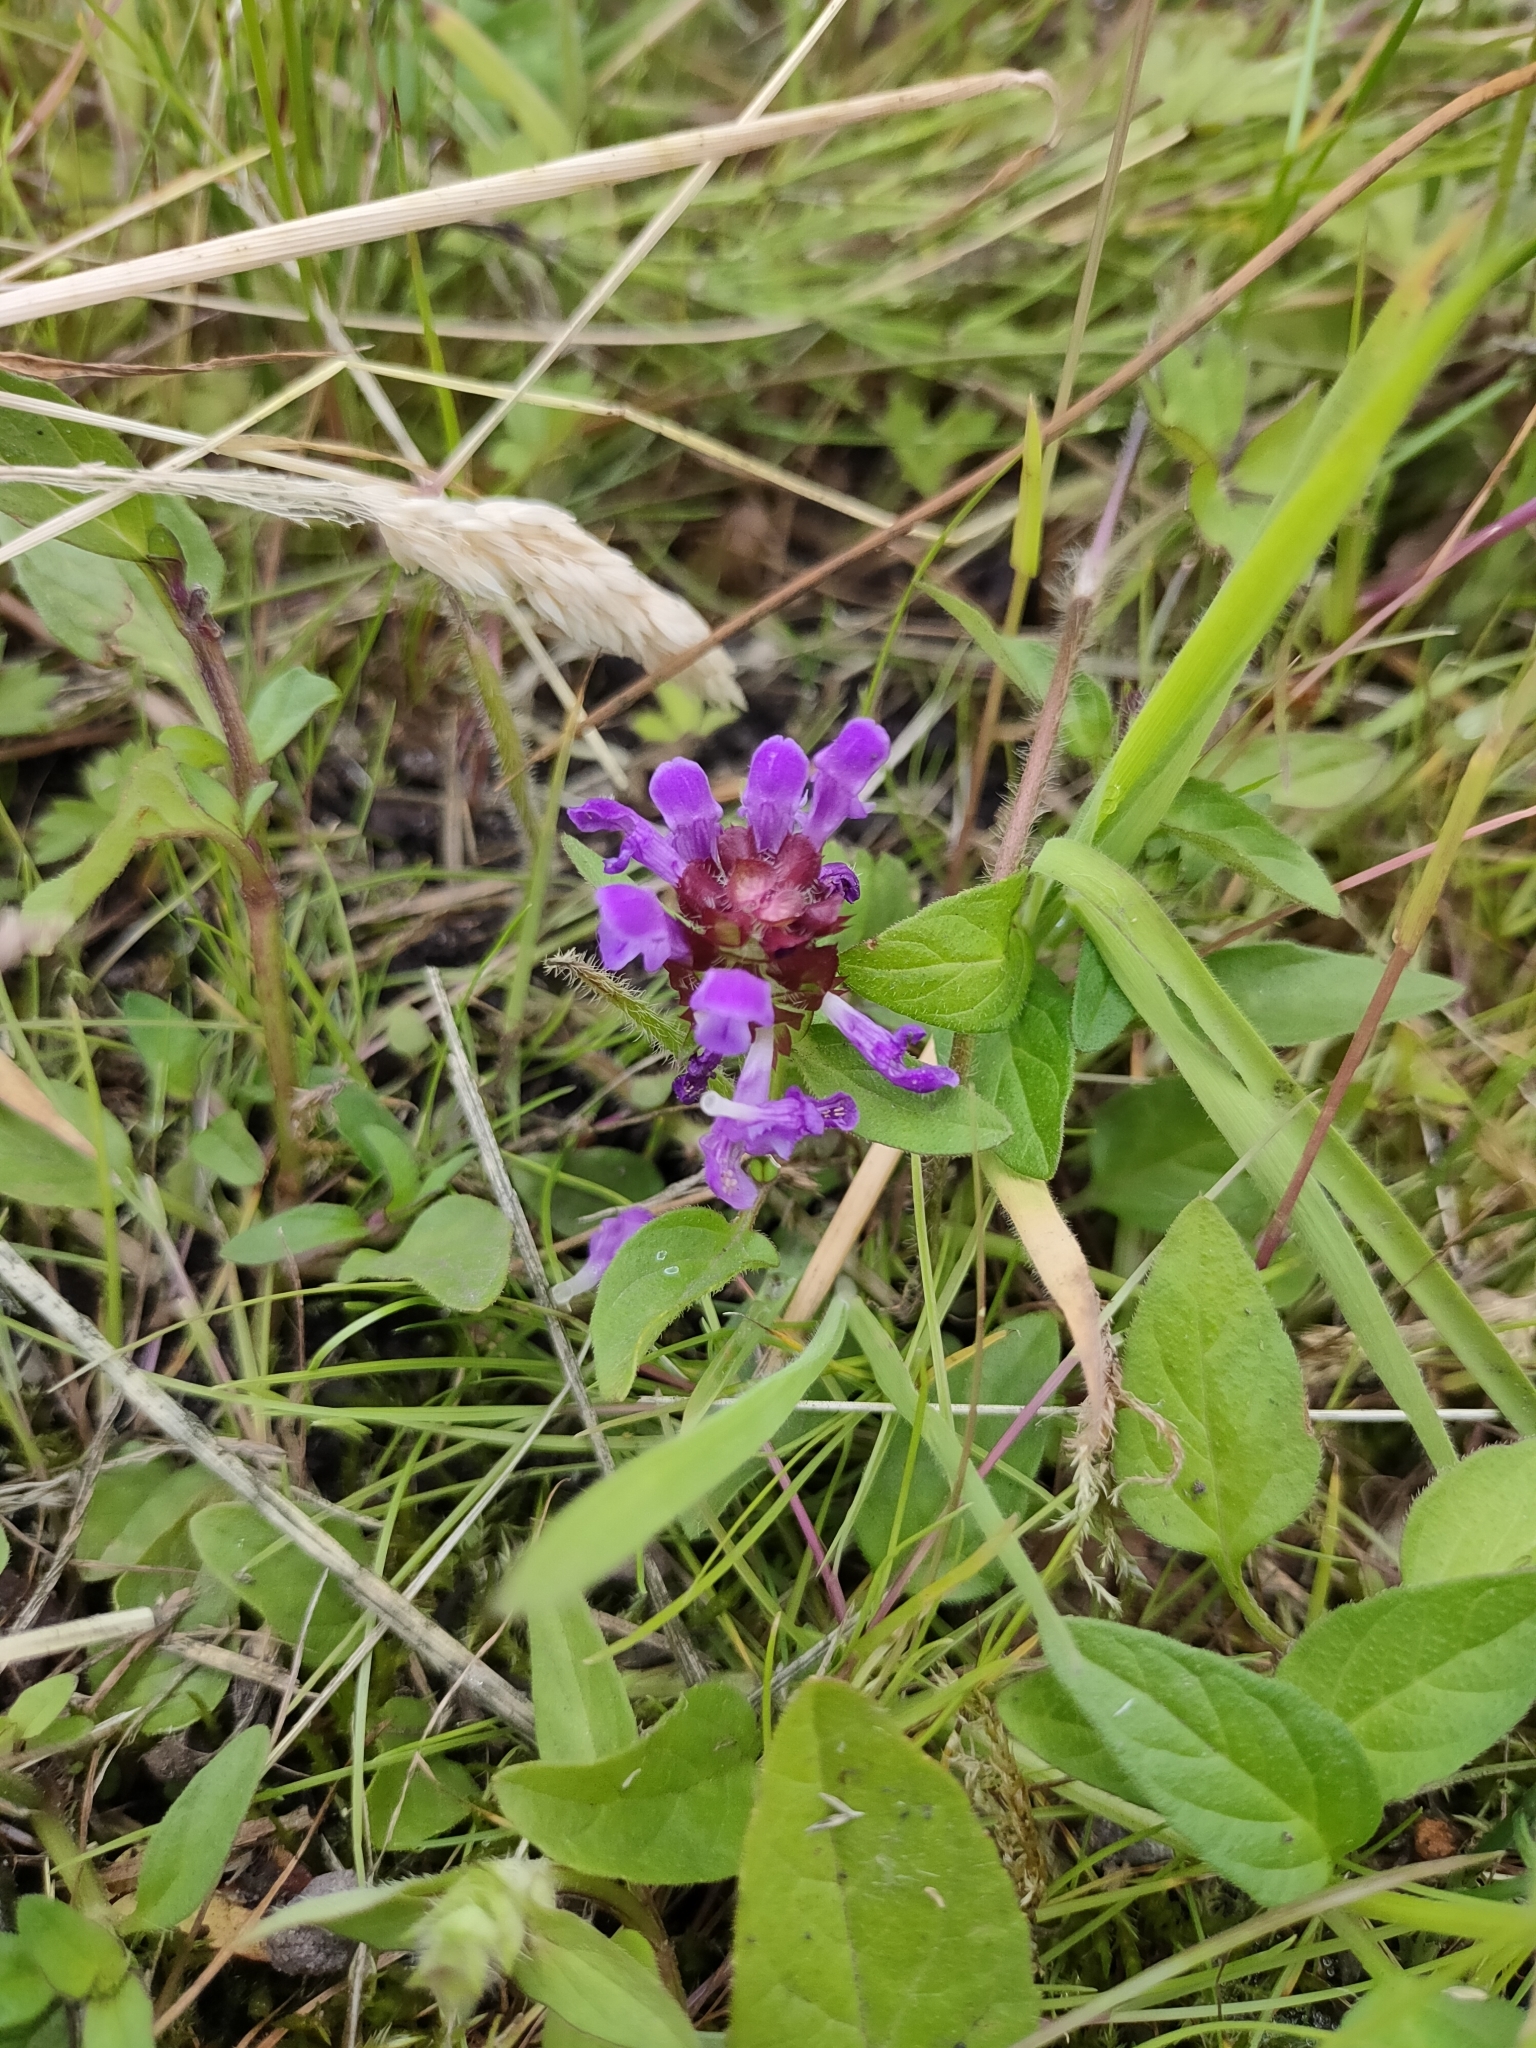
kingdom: Plantae
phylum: Tracheophyta
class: Magnoliopsida
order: Lamiales
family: Lamiaceae
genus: Prunella
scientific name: Prunella vulgaris
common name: Heal-all
